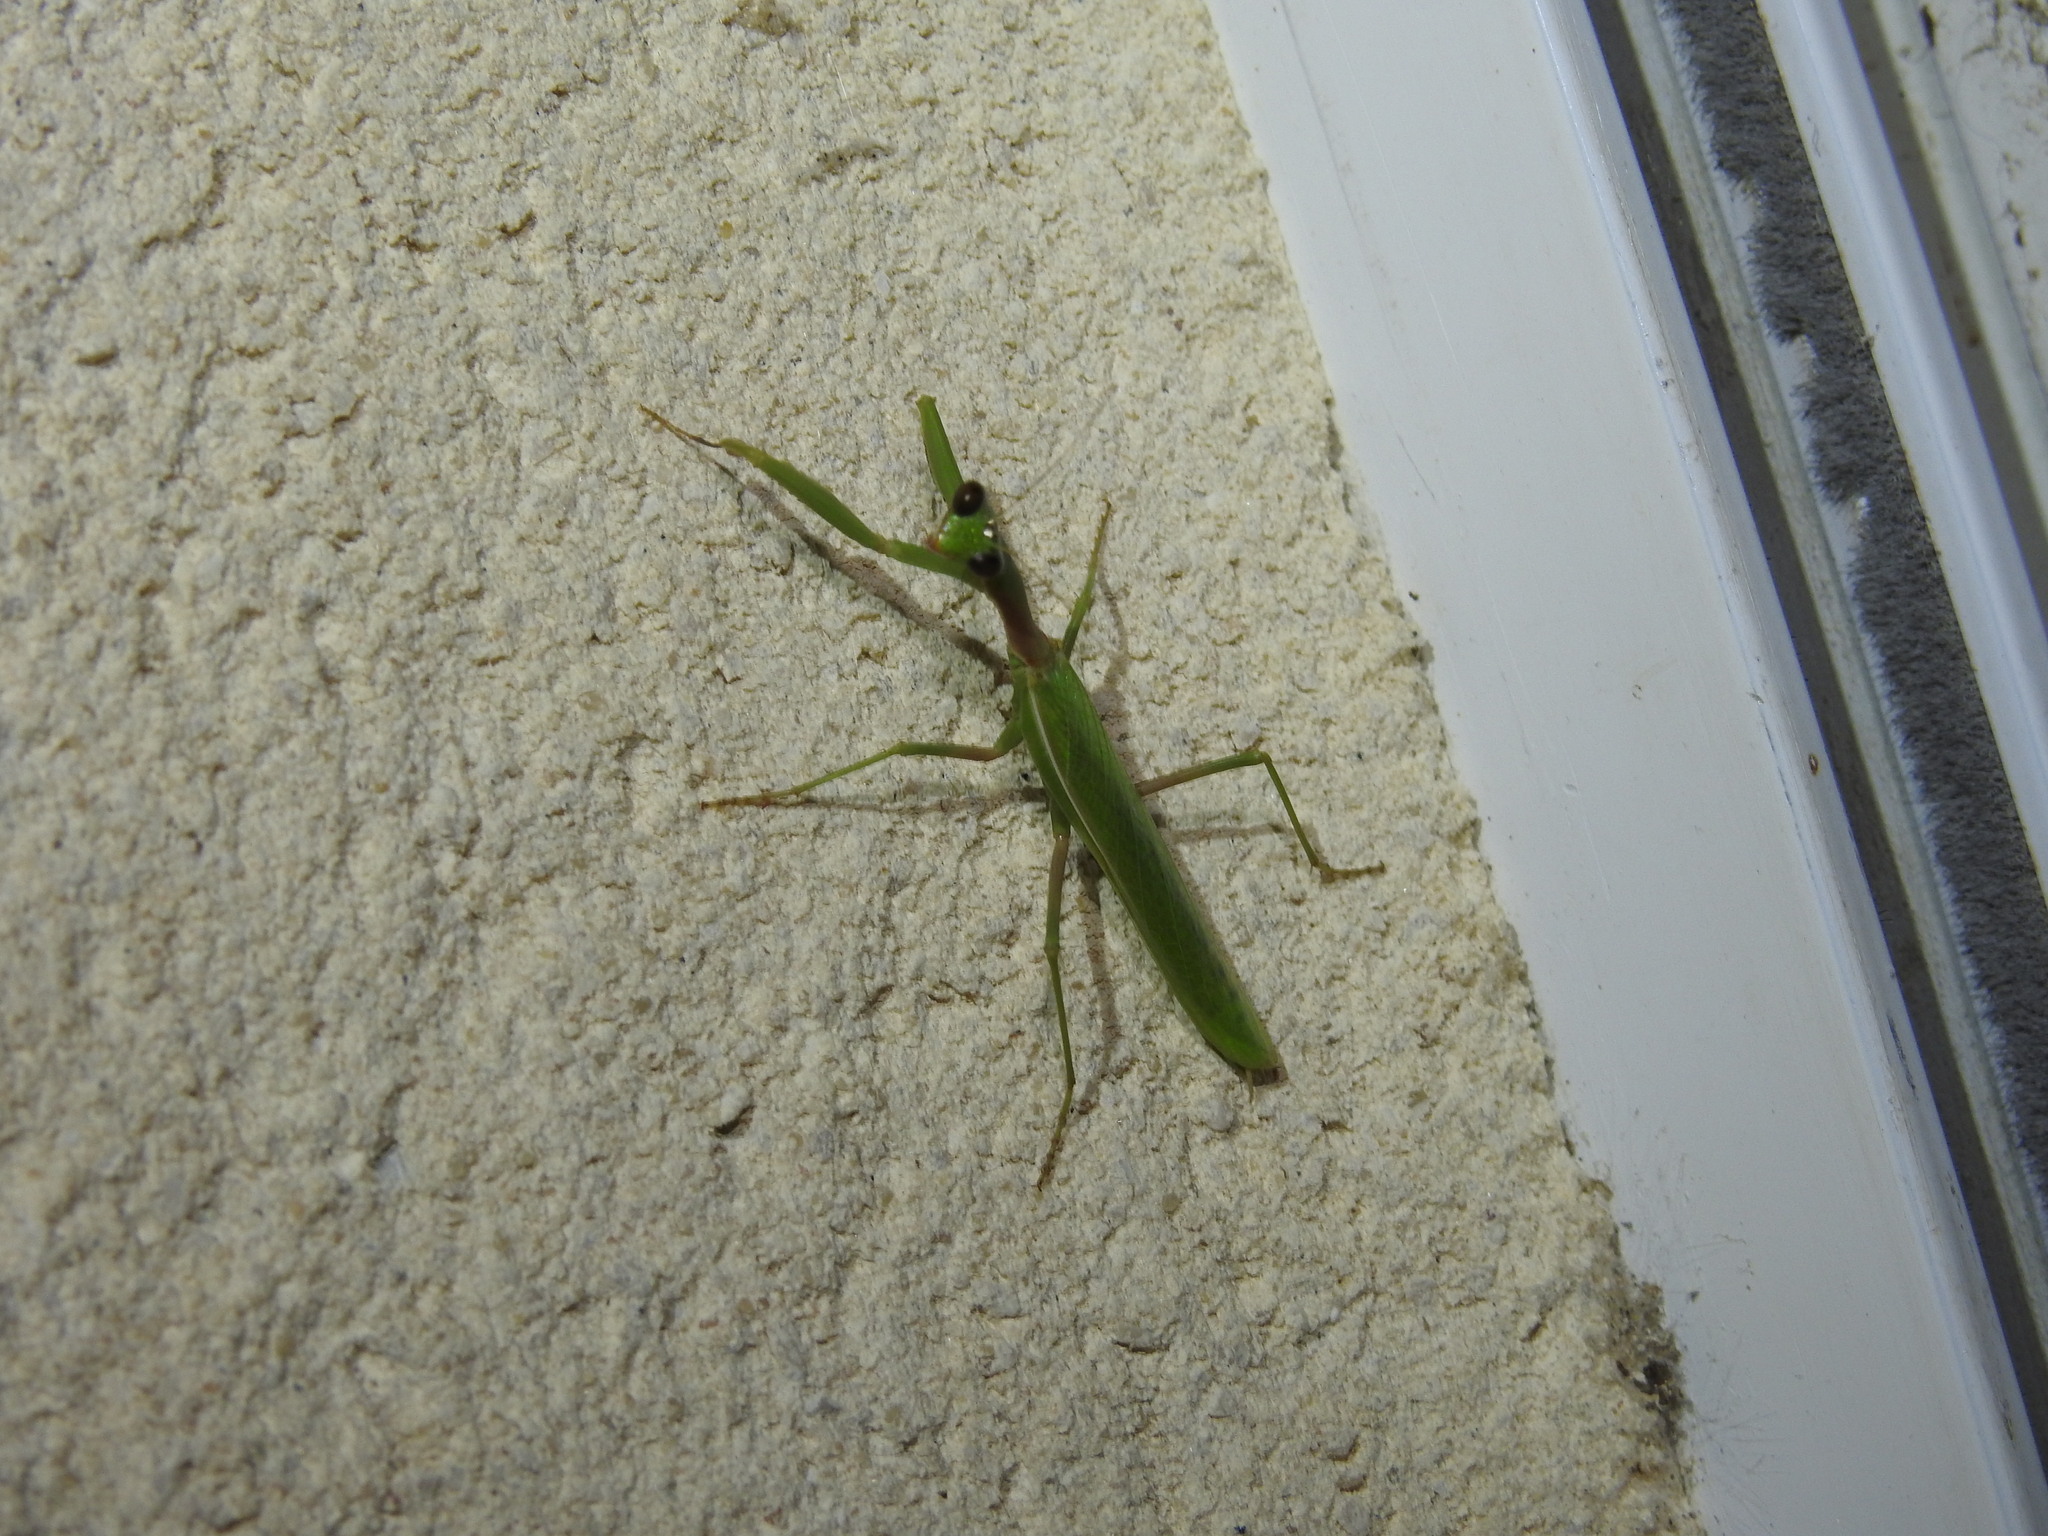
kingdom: Animalia
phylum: Arthropoda
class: Insecta
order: Mantodea
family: Eremiaphilidae
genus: Iris
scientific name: Iris oratoria
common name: Mediterranean mantis
